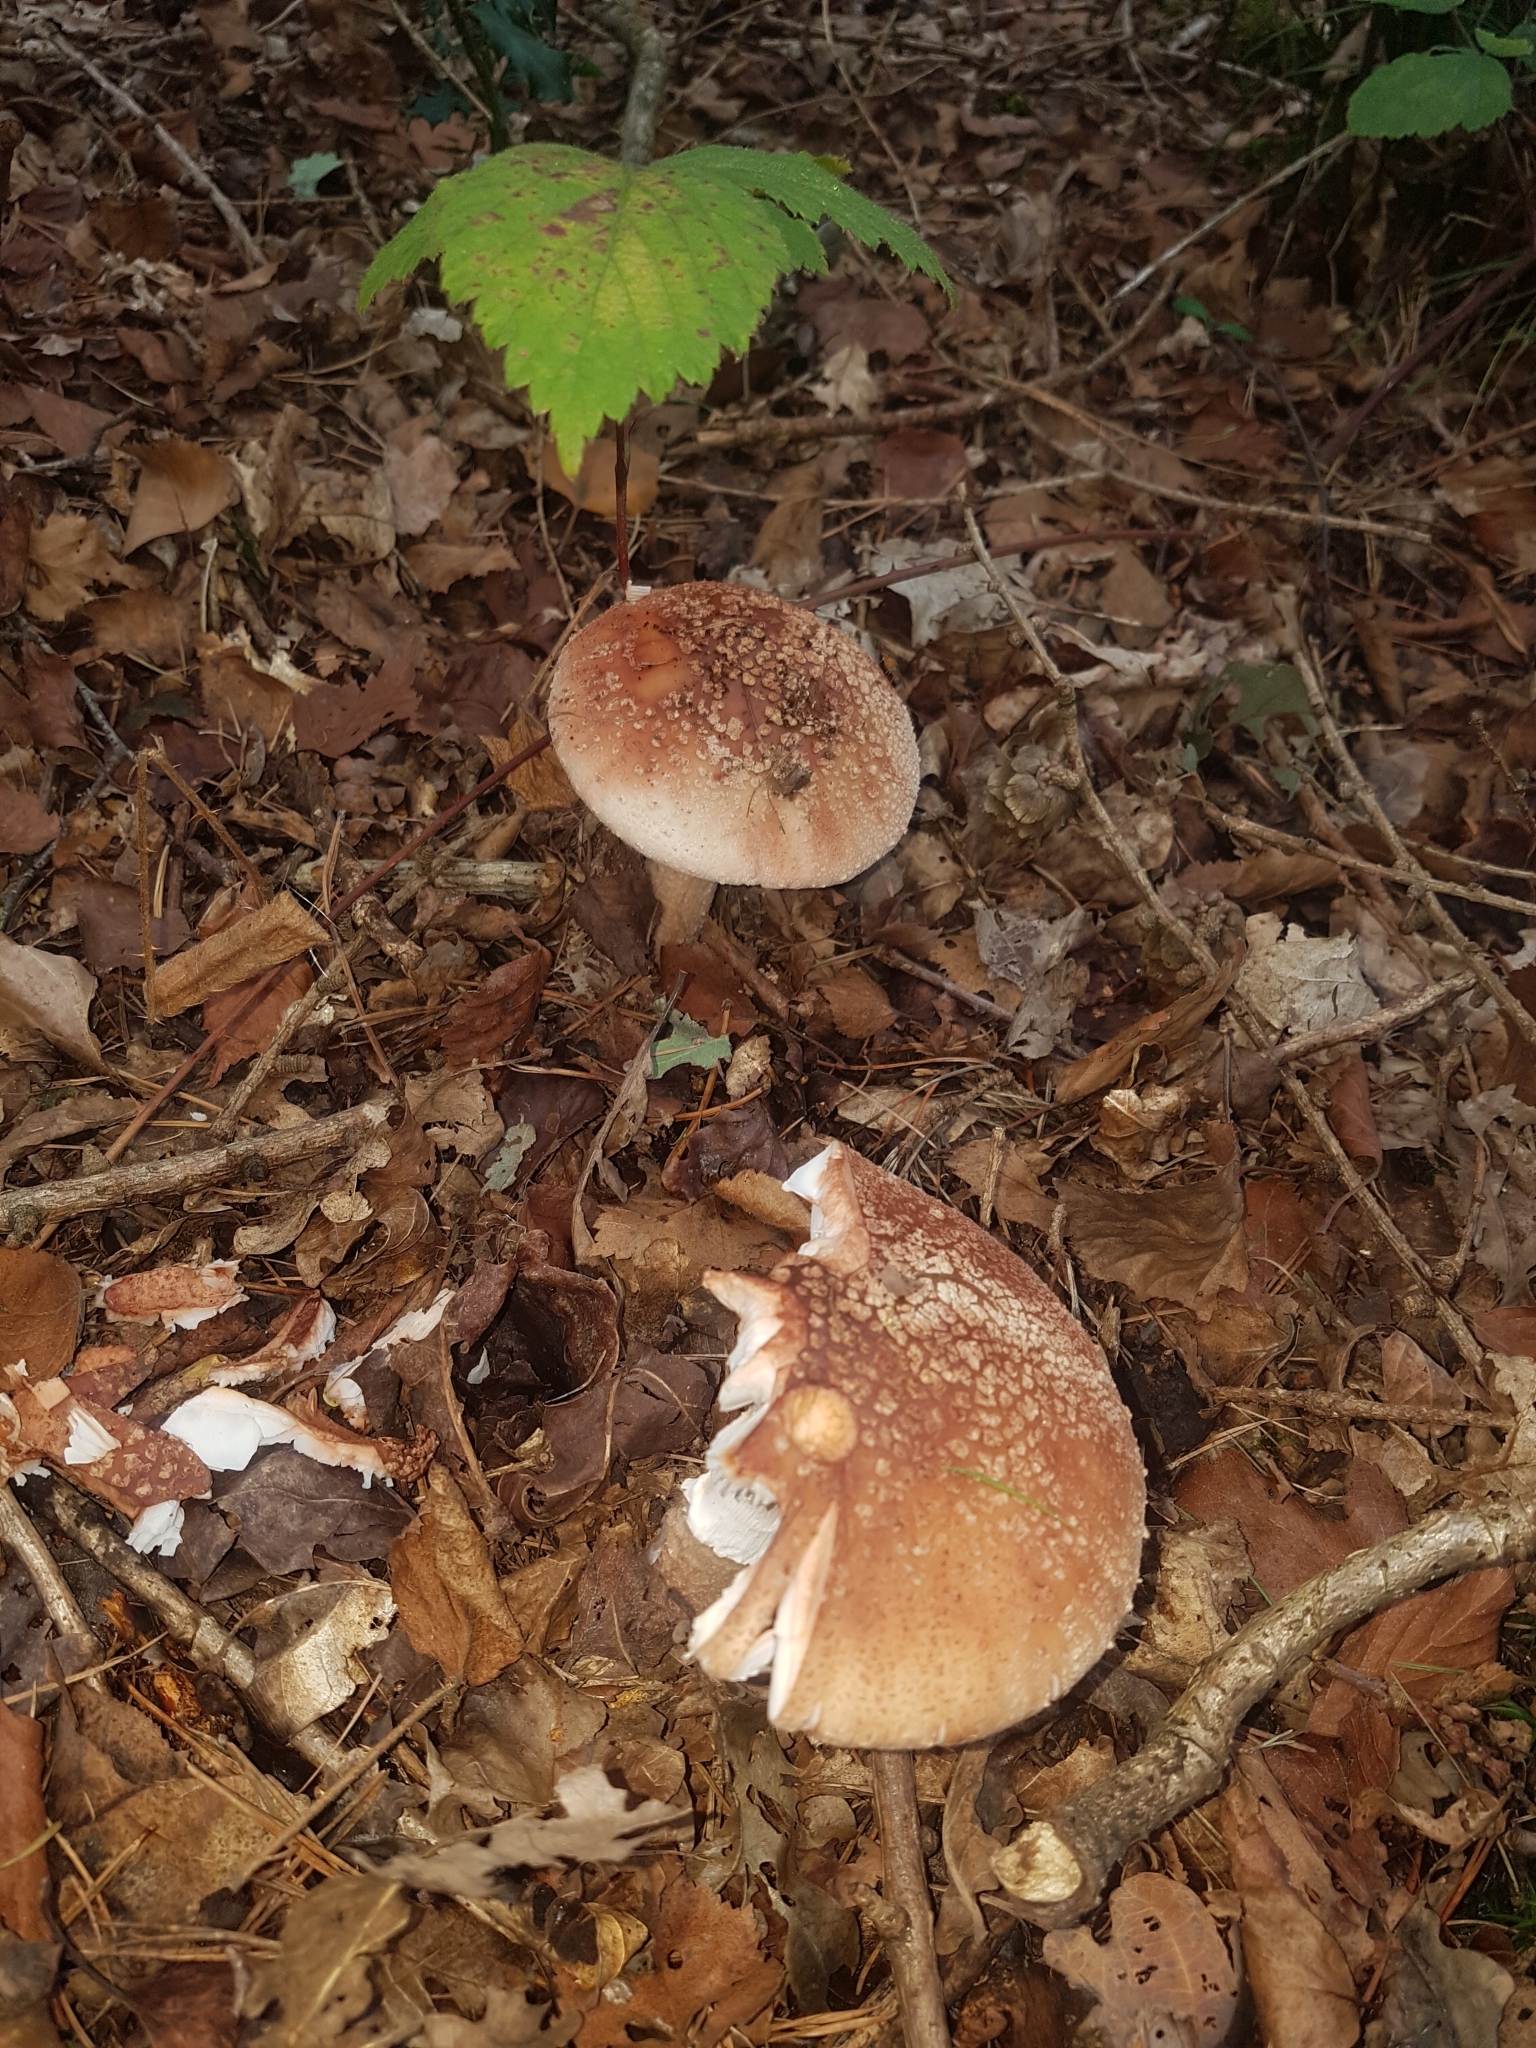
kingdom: Fungi
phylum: Basidiomycota
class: Agaricomycetes
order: Agaricales
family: Amanitaceae
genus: Amanita
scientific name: Amanita rubescens
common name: Blusher
